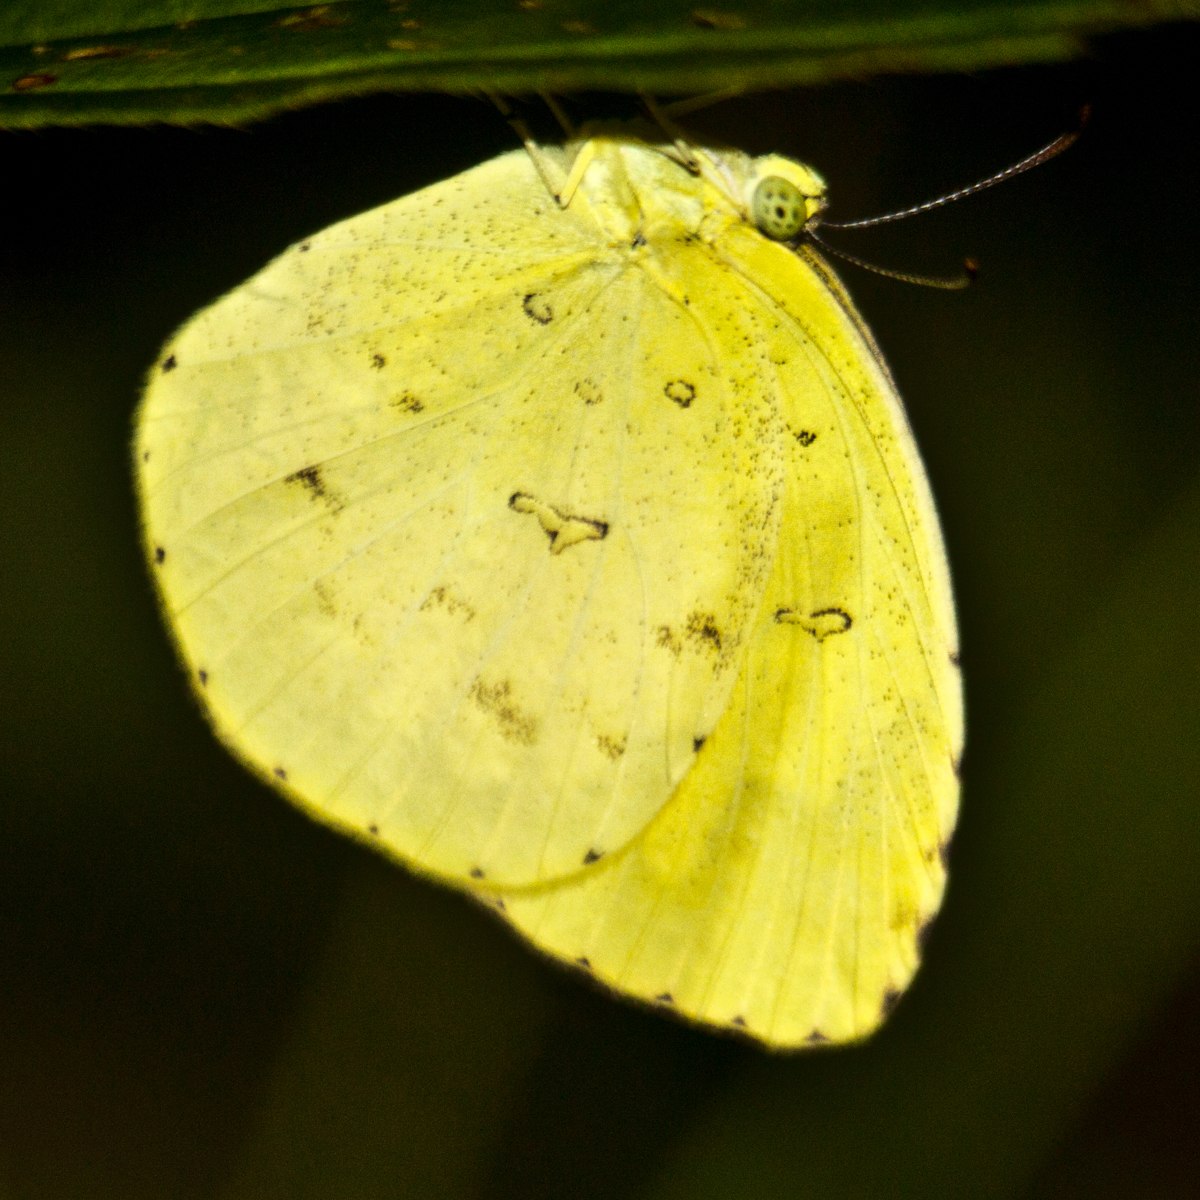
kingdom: Animalia
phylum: Arthropoda
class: Insecta
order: Lepidoptera
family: Pieridae
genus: Eurema
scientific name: Eurema hecabe
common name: Pale grass yellow
